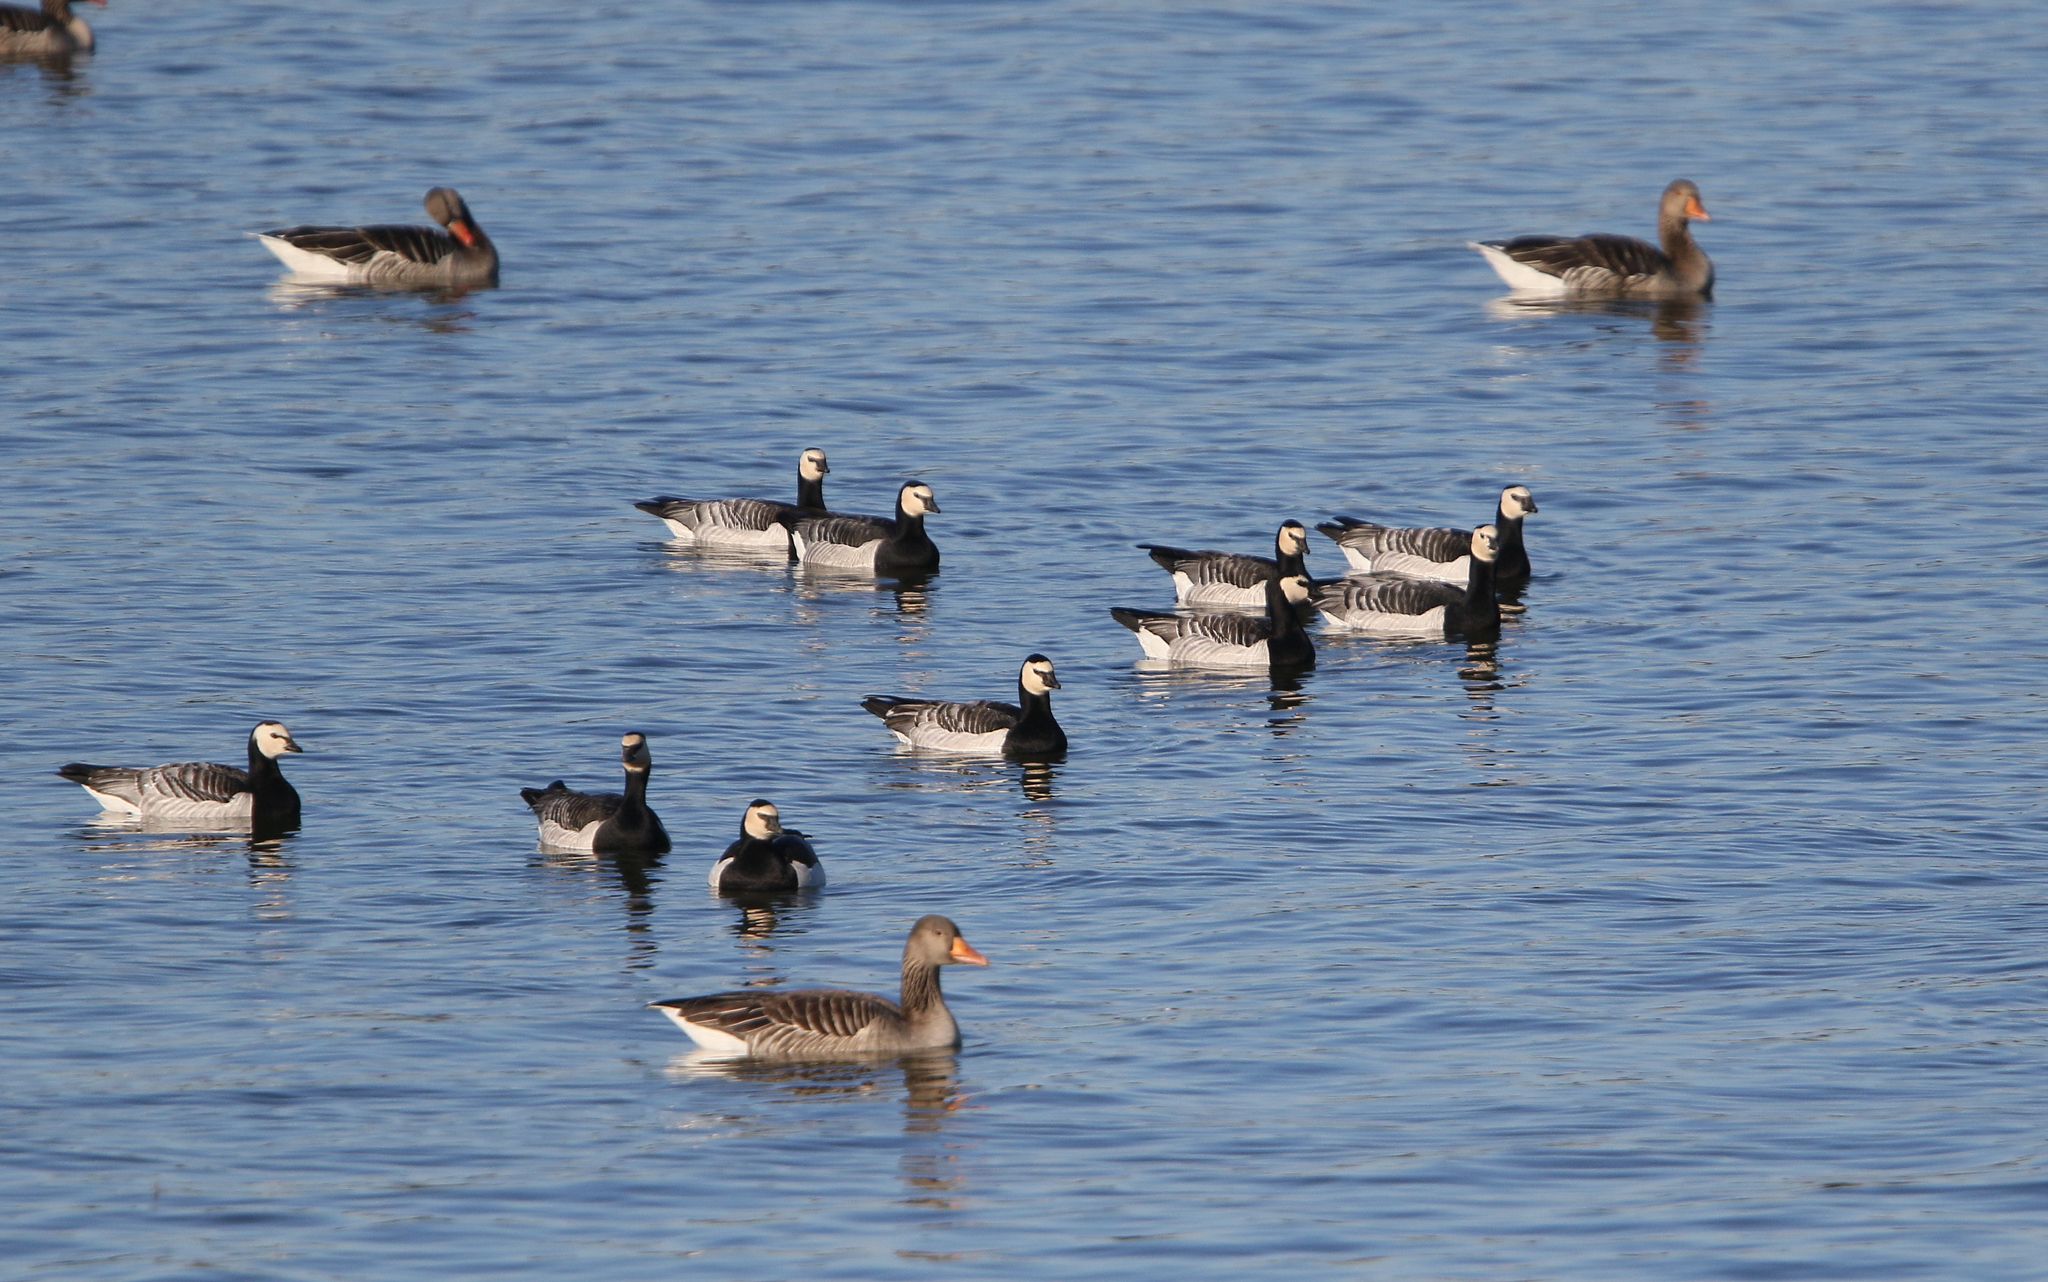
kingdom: Animalia
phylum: Chordata
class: Aves
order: Anseriformes
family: Anatidae
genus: Branta
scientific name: Branta leucopsis
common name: Barnacle goose
